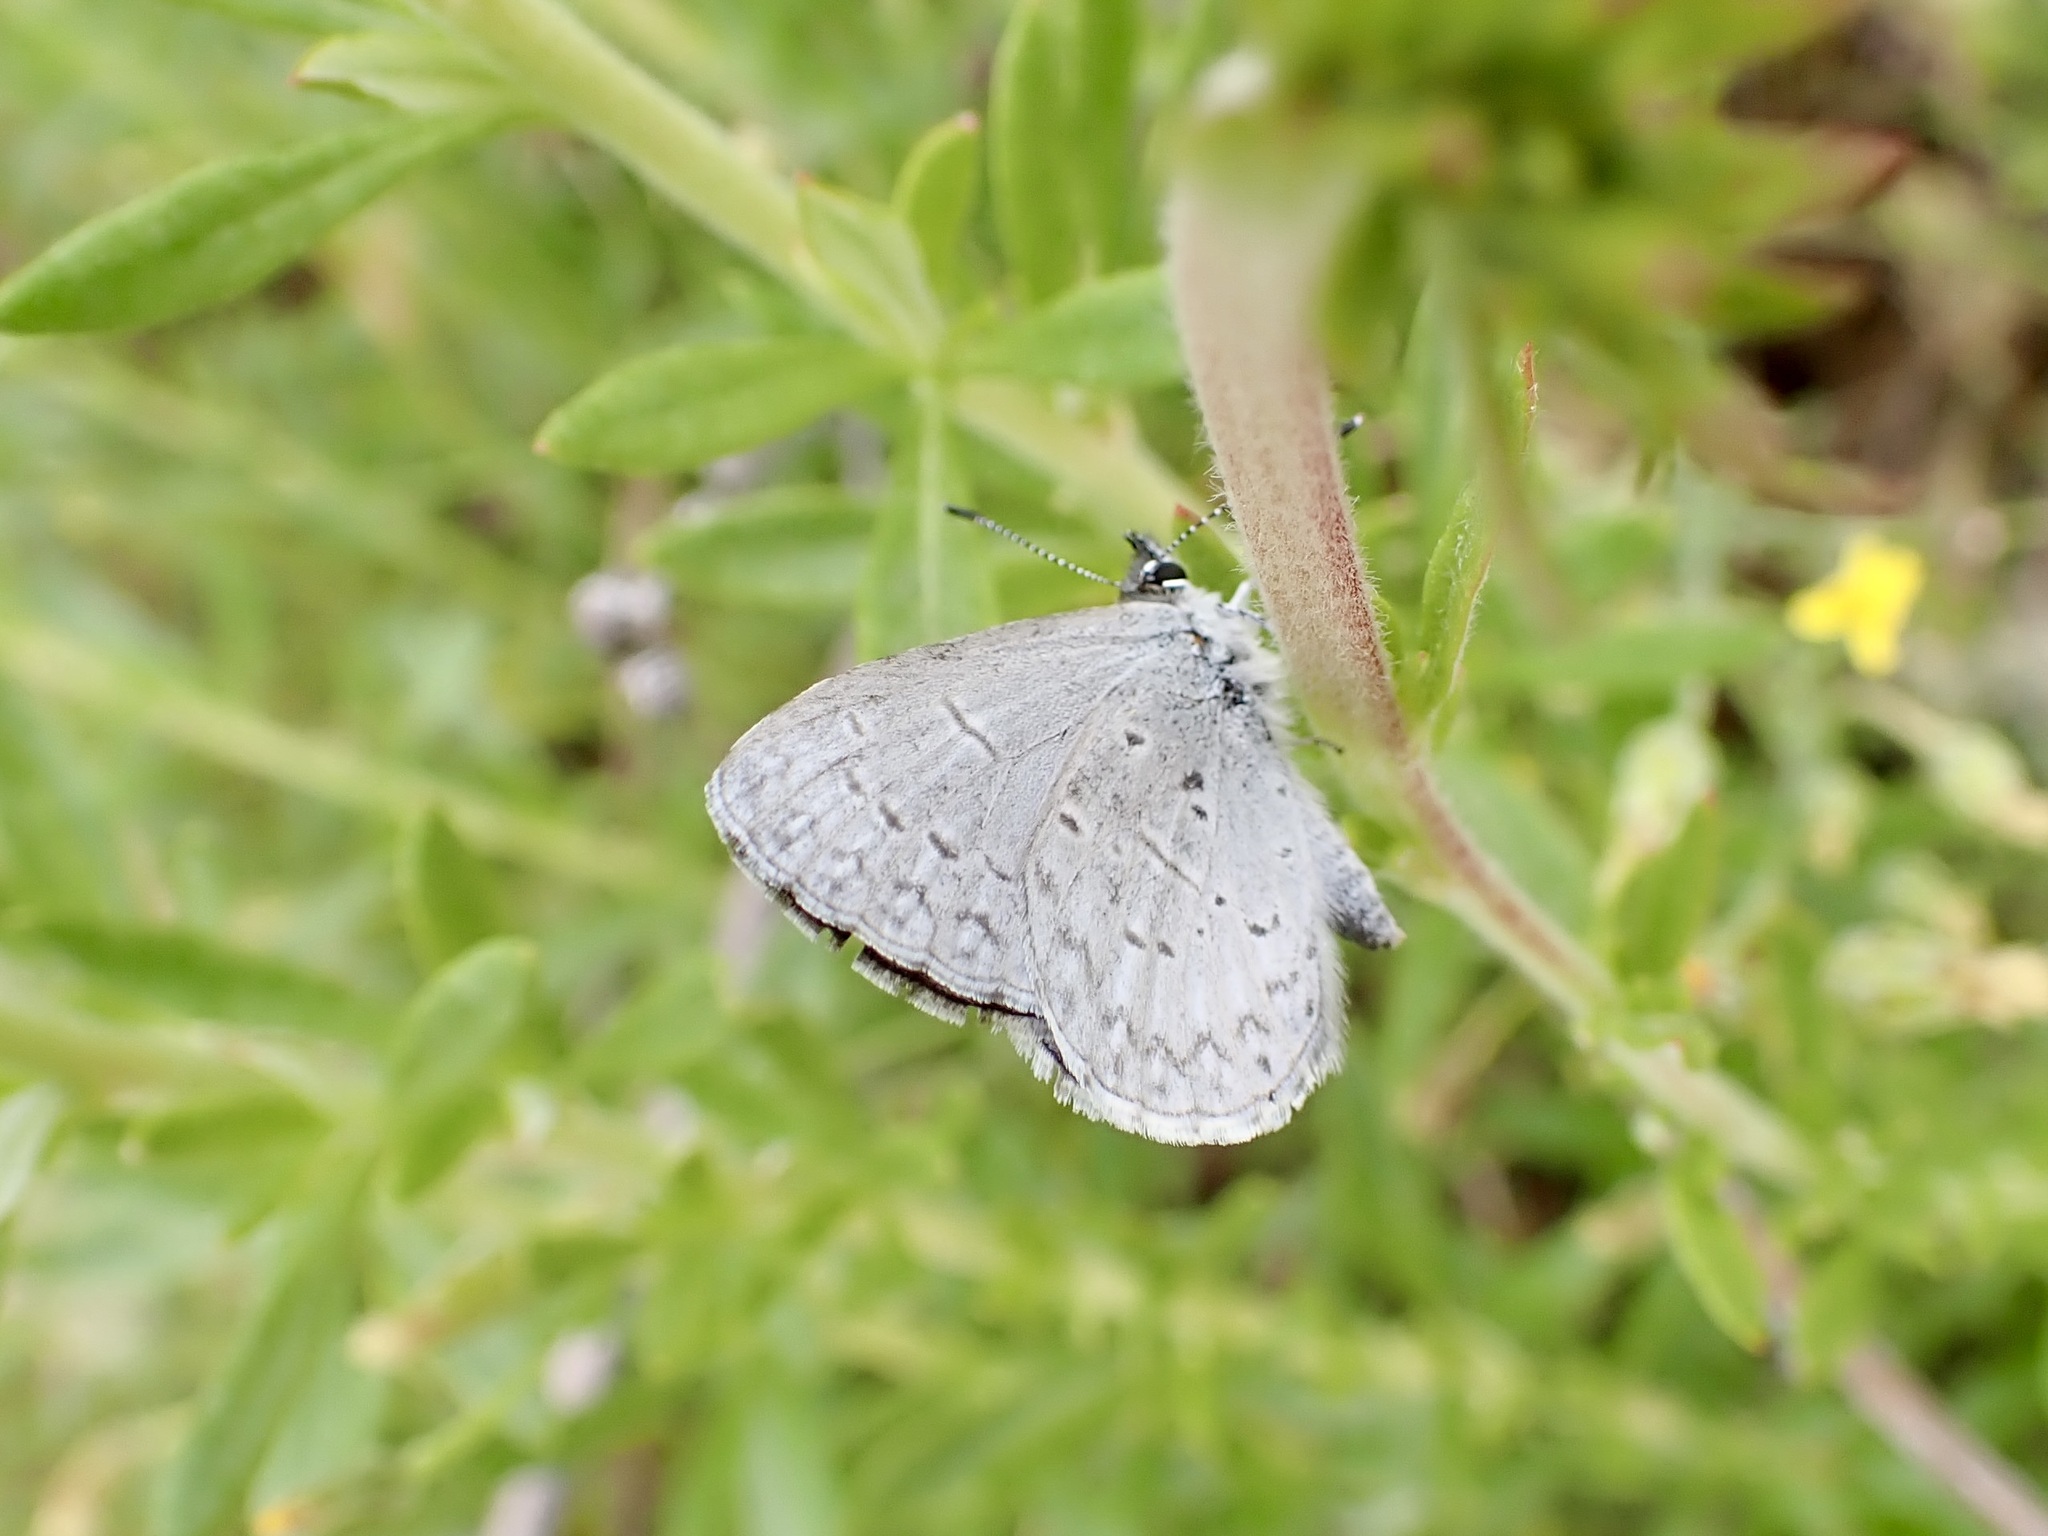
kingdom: Animalia
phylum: Arthropoda
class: Insecta
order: Lepidoptera
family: Lycaenidae
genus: Celastrina
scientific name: Celastrina ladon
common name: Spring azure
